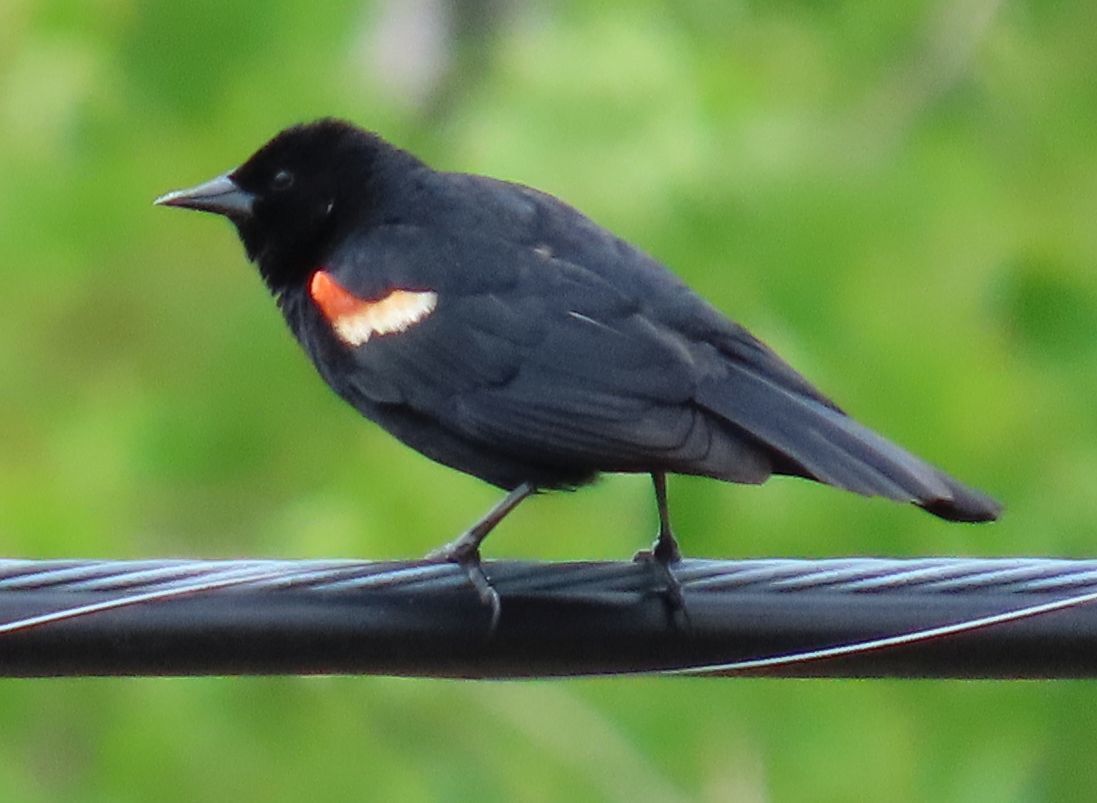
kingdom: Animalia
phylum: Chordata
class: Aves
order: Passeriformes
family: Icteridae
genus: Agelaius
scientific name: Agelaius phoeniceus
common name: Red-winged blackbird
